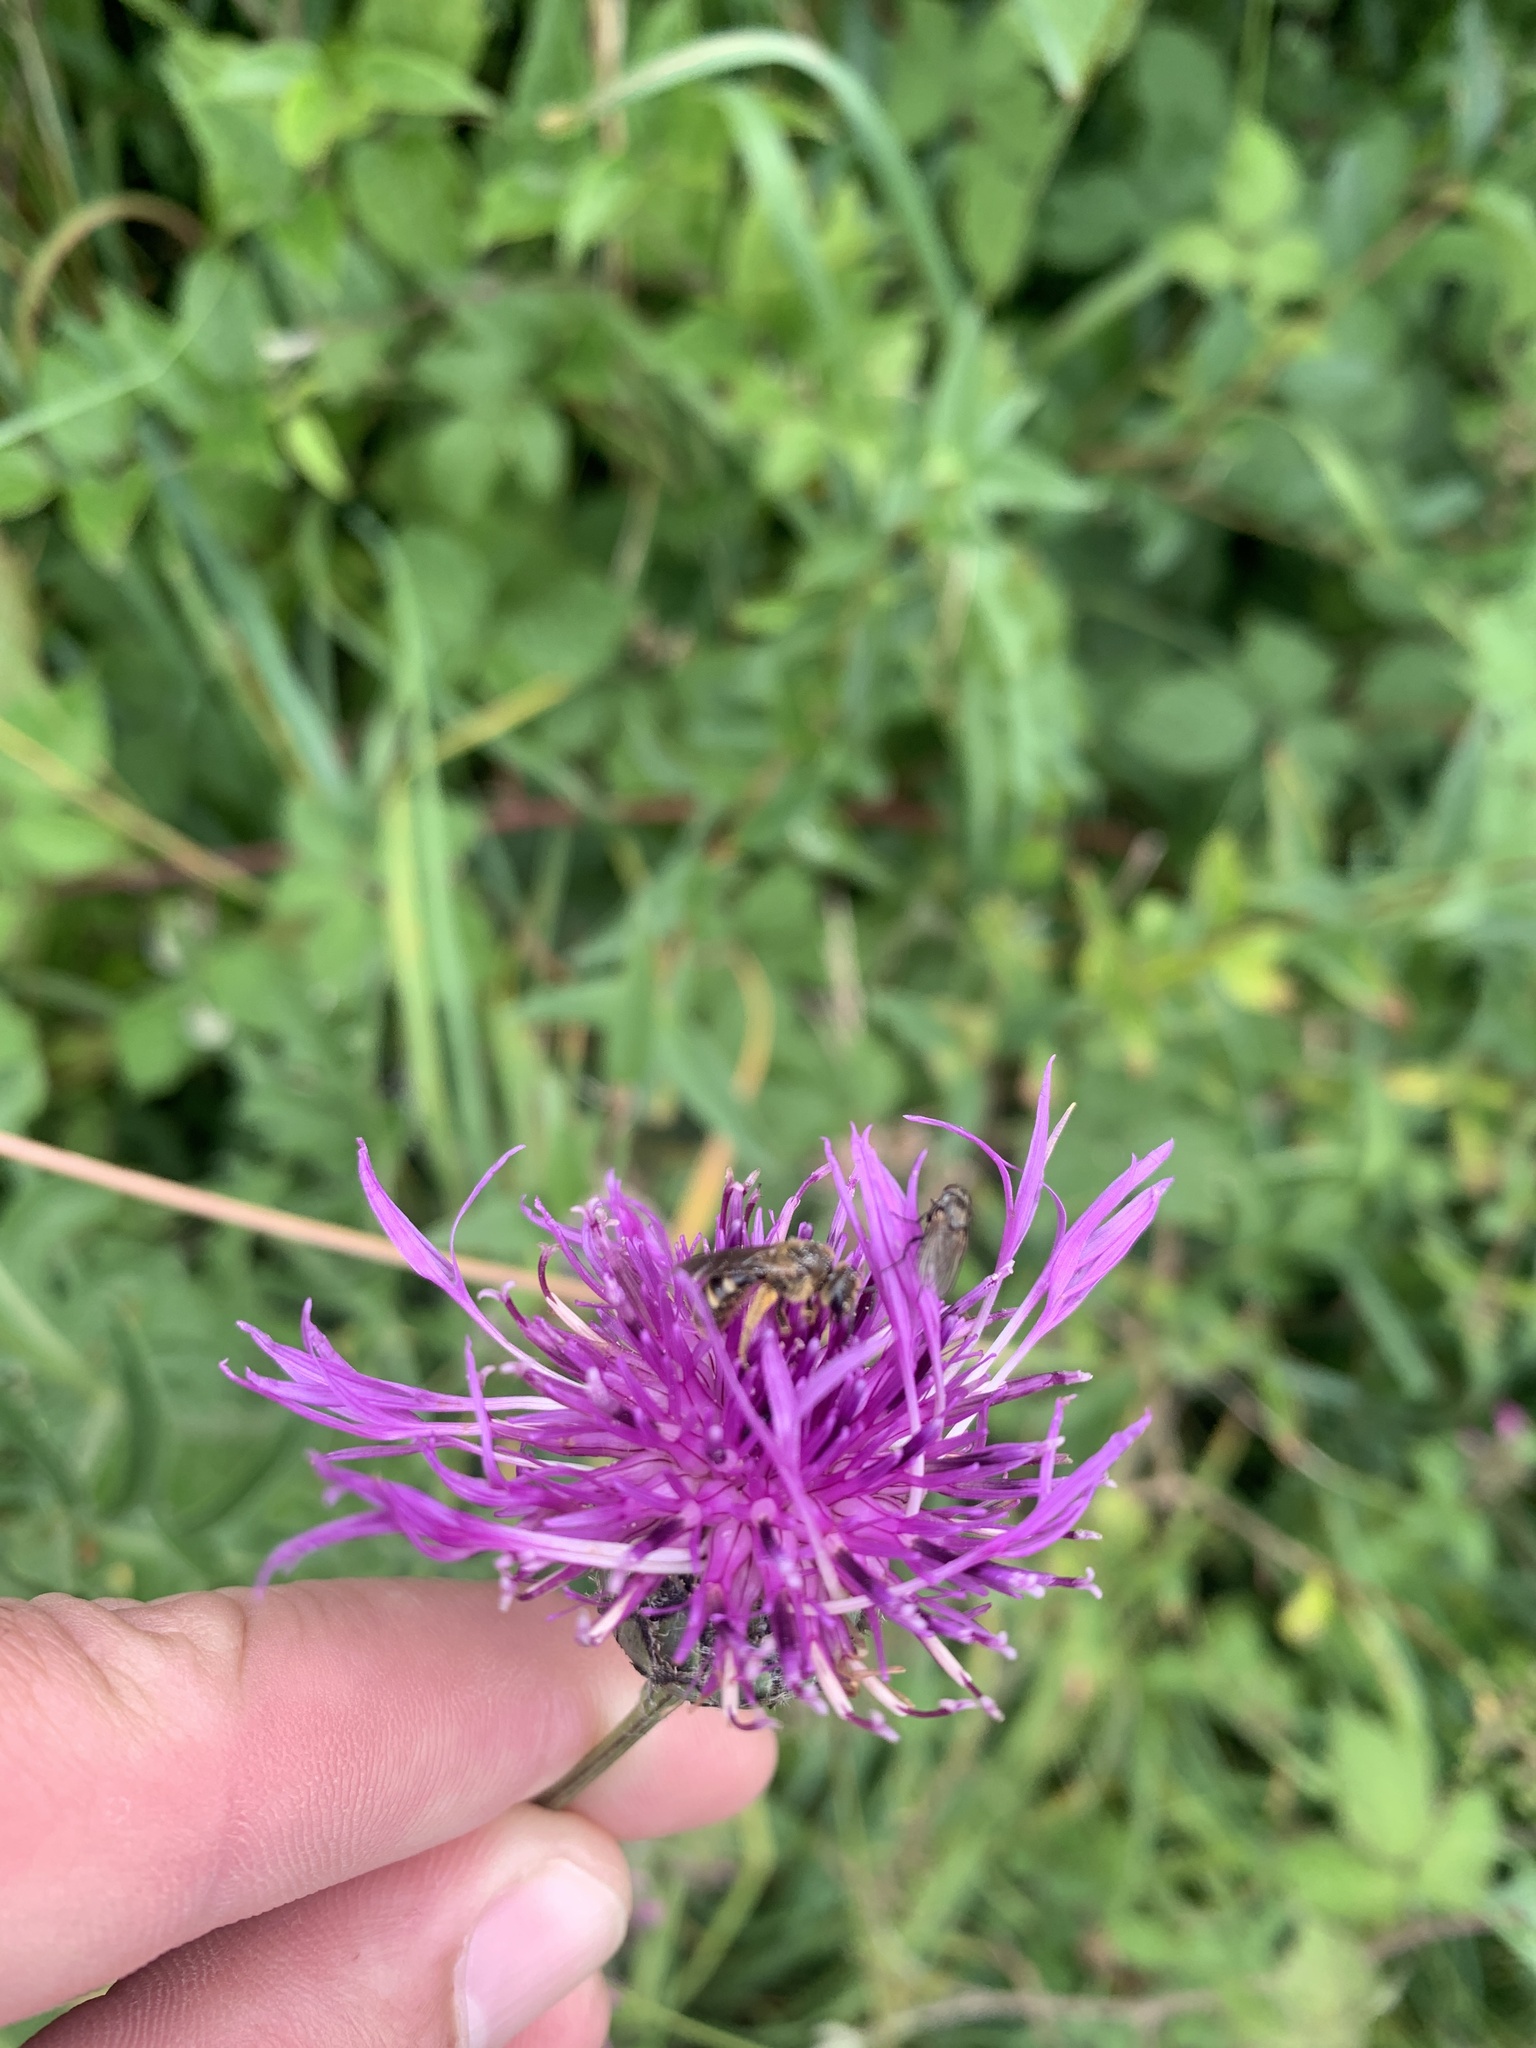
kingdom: Plantae
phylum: Tracheophyta
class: Magnoliopsida
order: Asterales
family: Asteraceae
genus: Centaurea
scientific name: Centaurea scabiosa
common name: Greater knapweed
